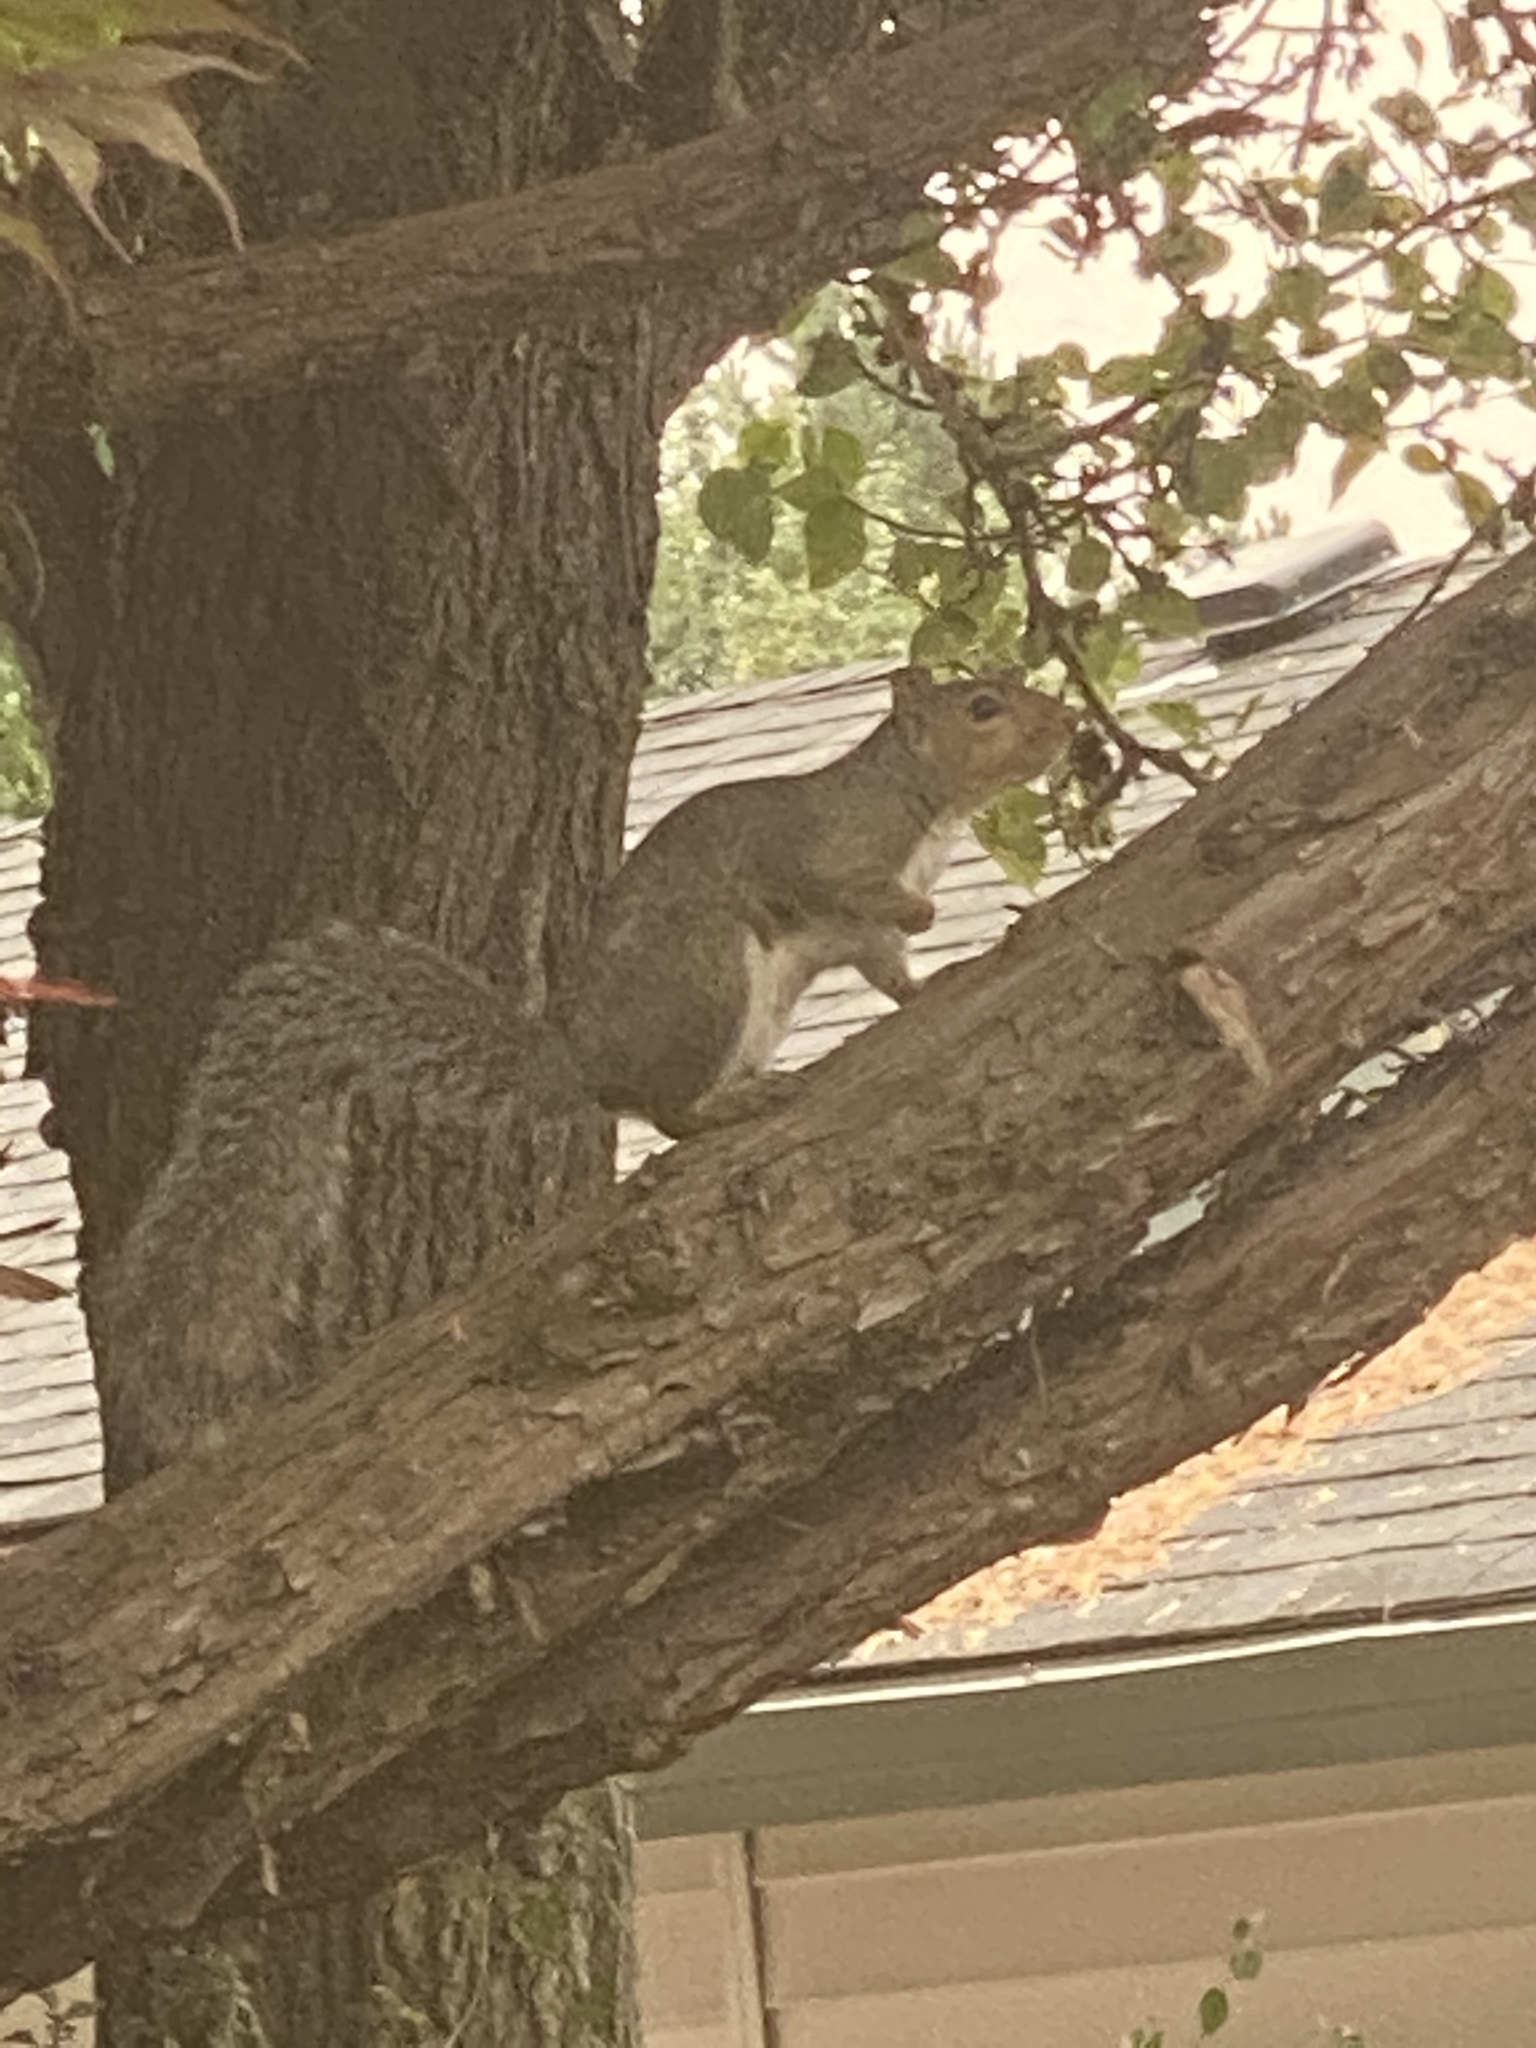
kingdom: Animalia
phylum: Chordata
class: Mammalia
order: Rodentia
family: Sciuridae
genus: Sciurus
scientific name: Sciurus carolinensis
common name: Eastern gray squirrel
